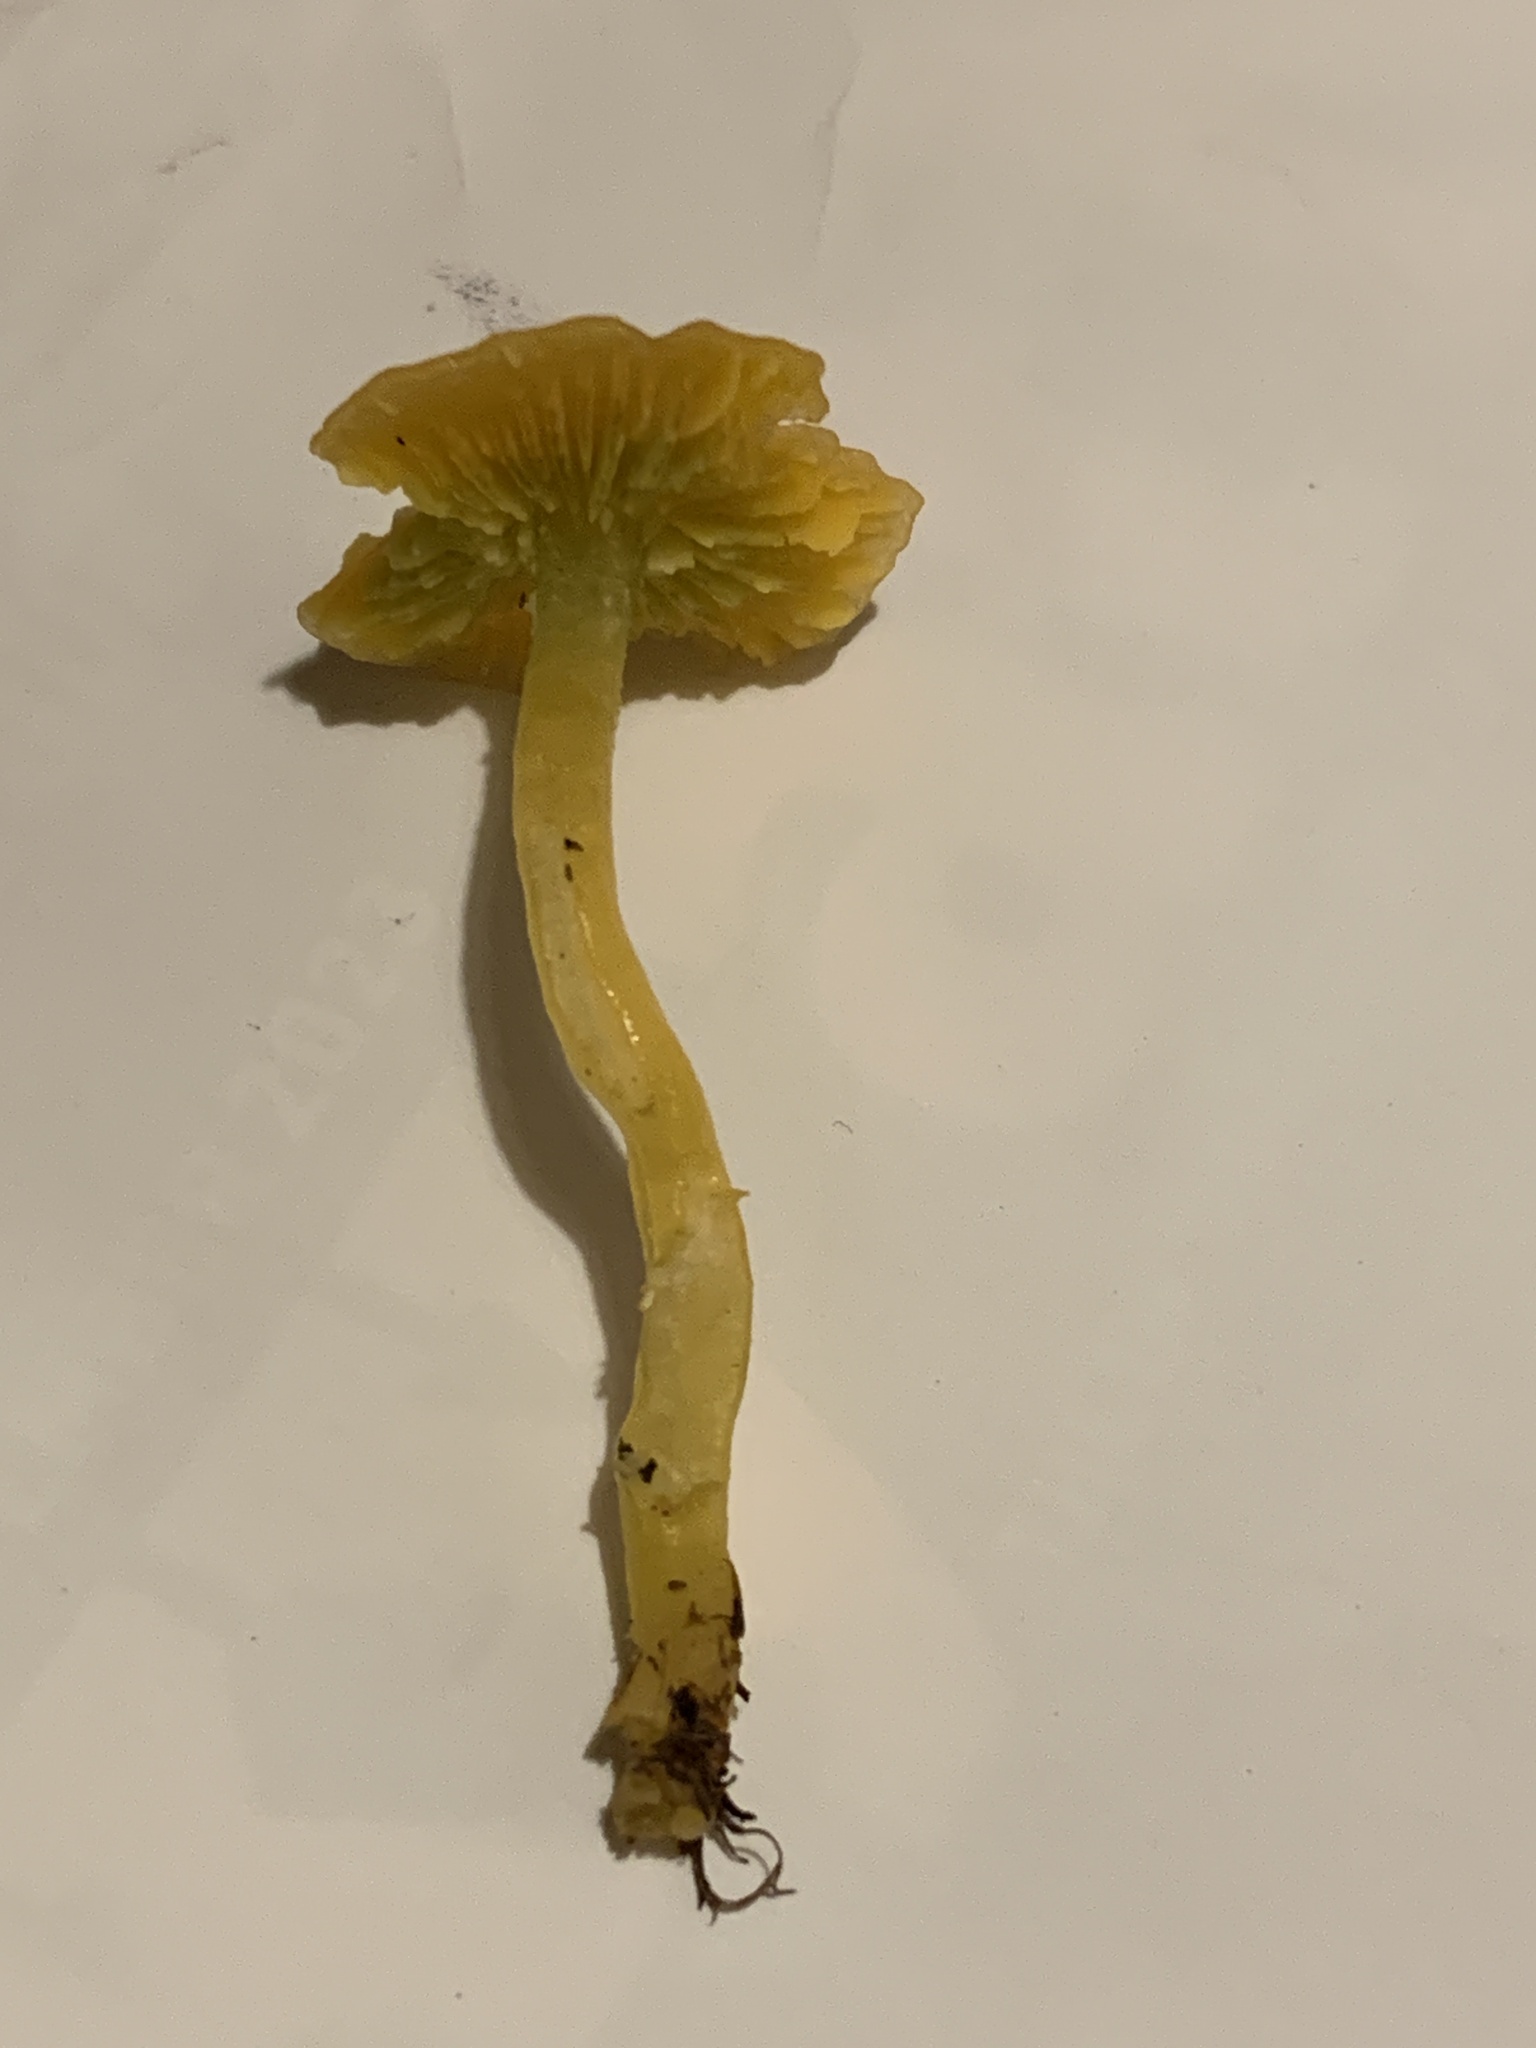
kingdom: Fungi
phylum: Basidiomycota
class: Agaricomycetes
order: Agaricales
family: Hygrophoraceae
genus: Gliophorus
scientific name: Gliophorus psittacinus
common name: Parrot wax-cap
